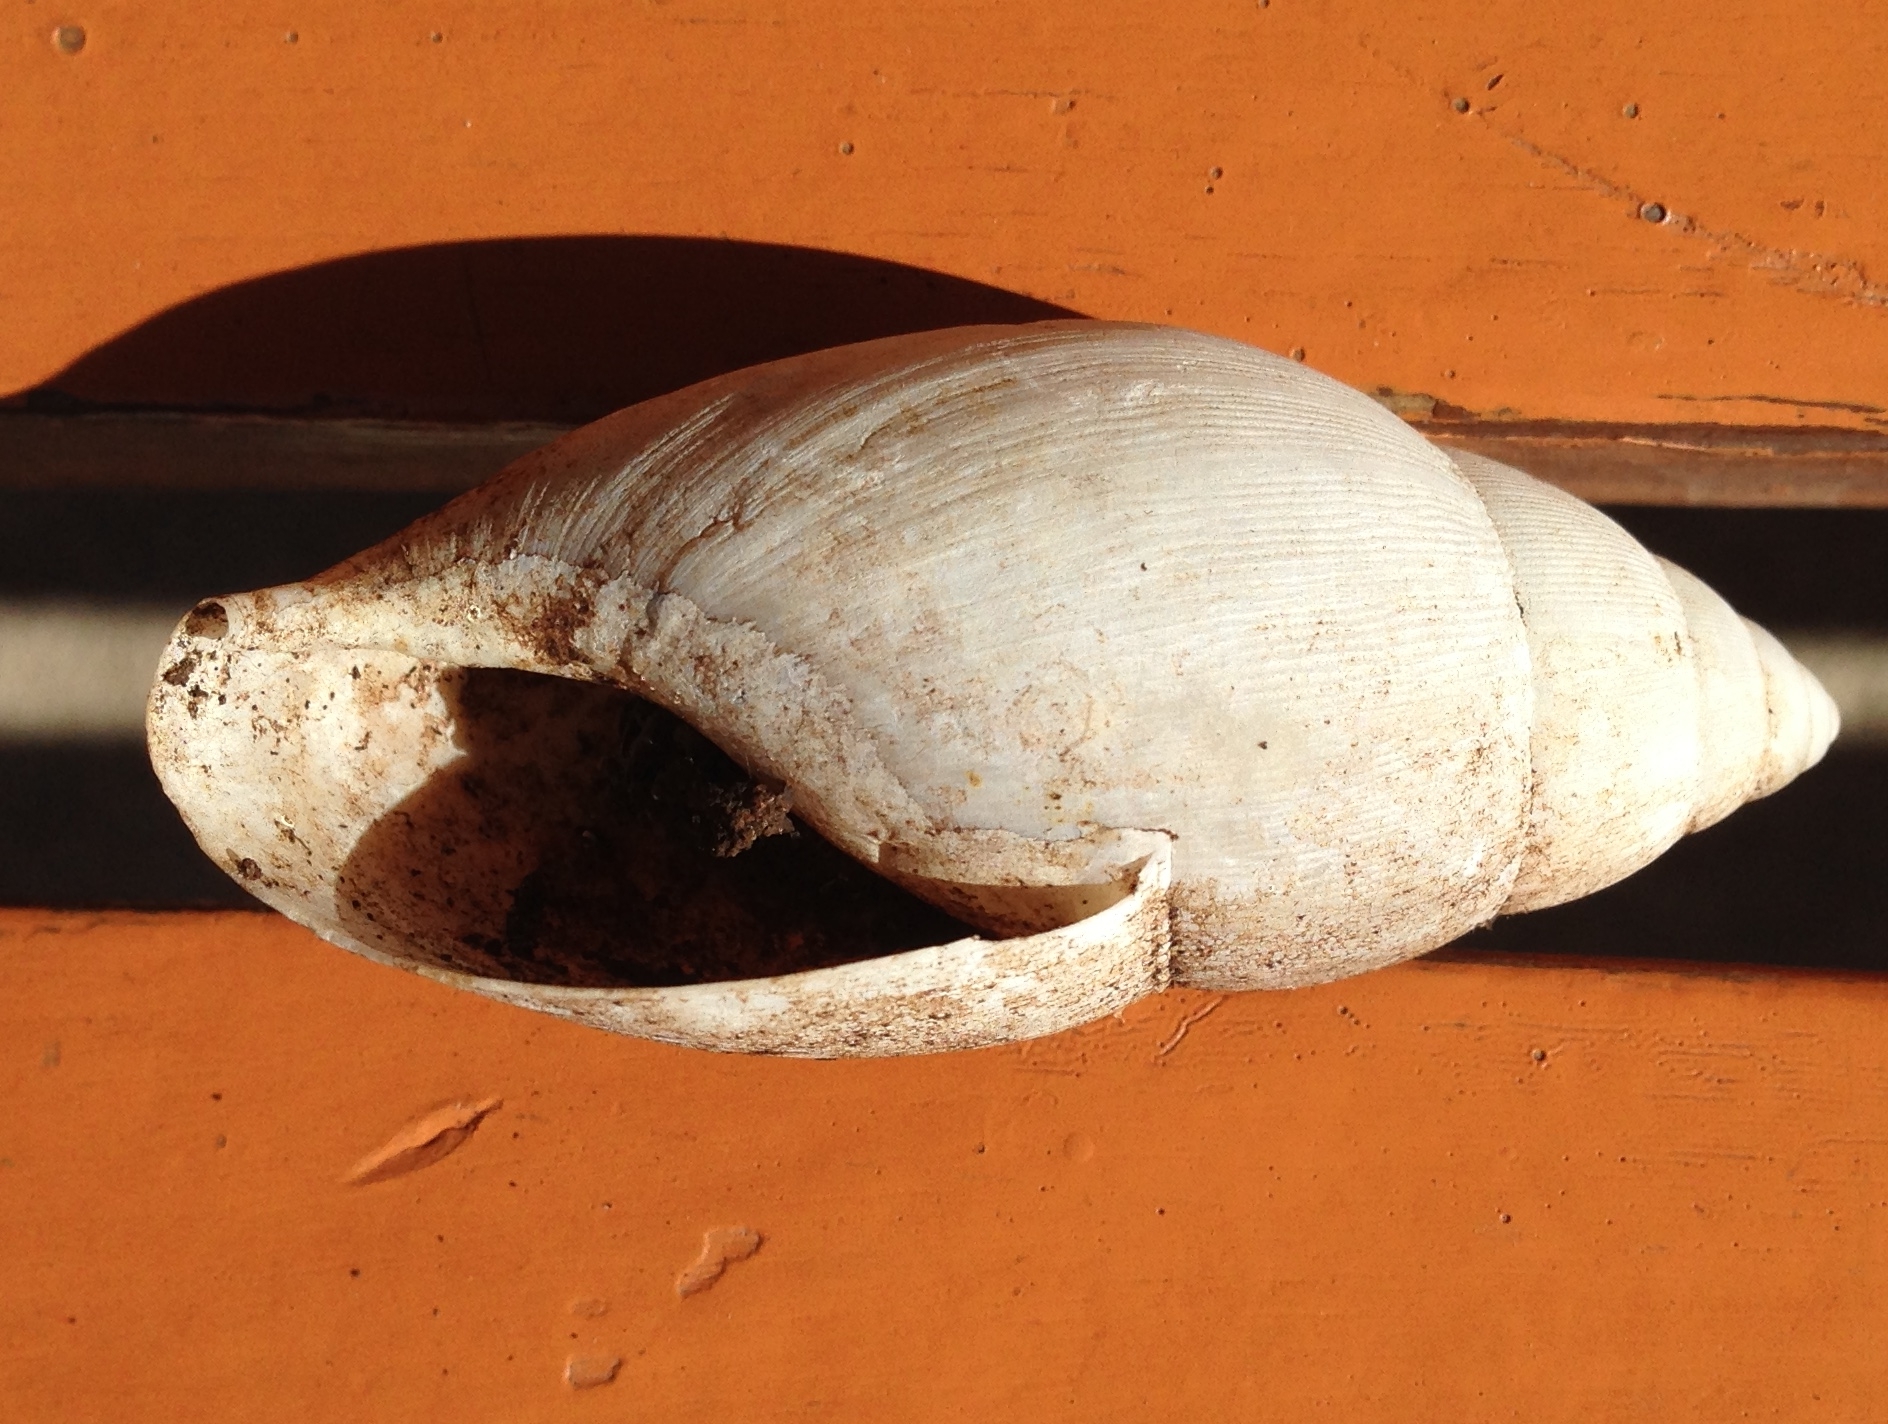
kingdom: Animalia
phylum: Mollusca
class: Gastropoda
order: Stylommatophora
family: Spiraxidae
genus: Euglandina
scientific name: Euglandina
